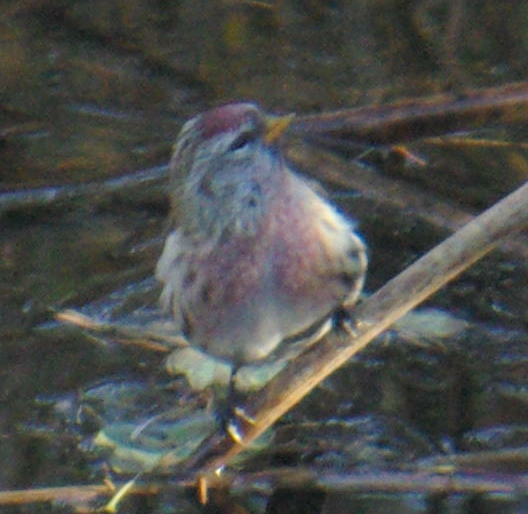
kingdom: Animalia
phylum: Chordata
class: Aves
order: Passeriformes
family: Fringillidae
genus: Acanthis
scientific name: Acanthis flammea
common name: Common redpoll
